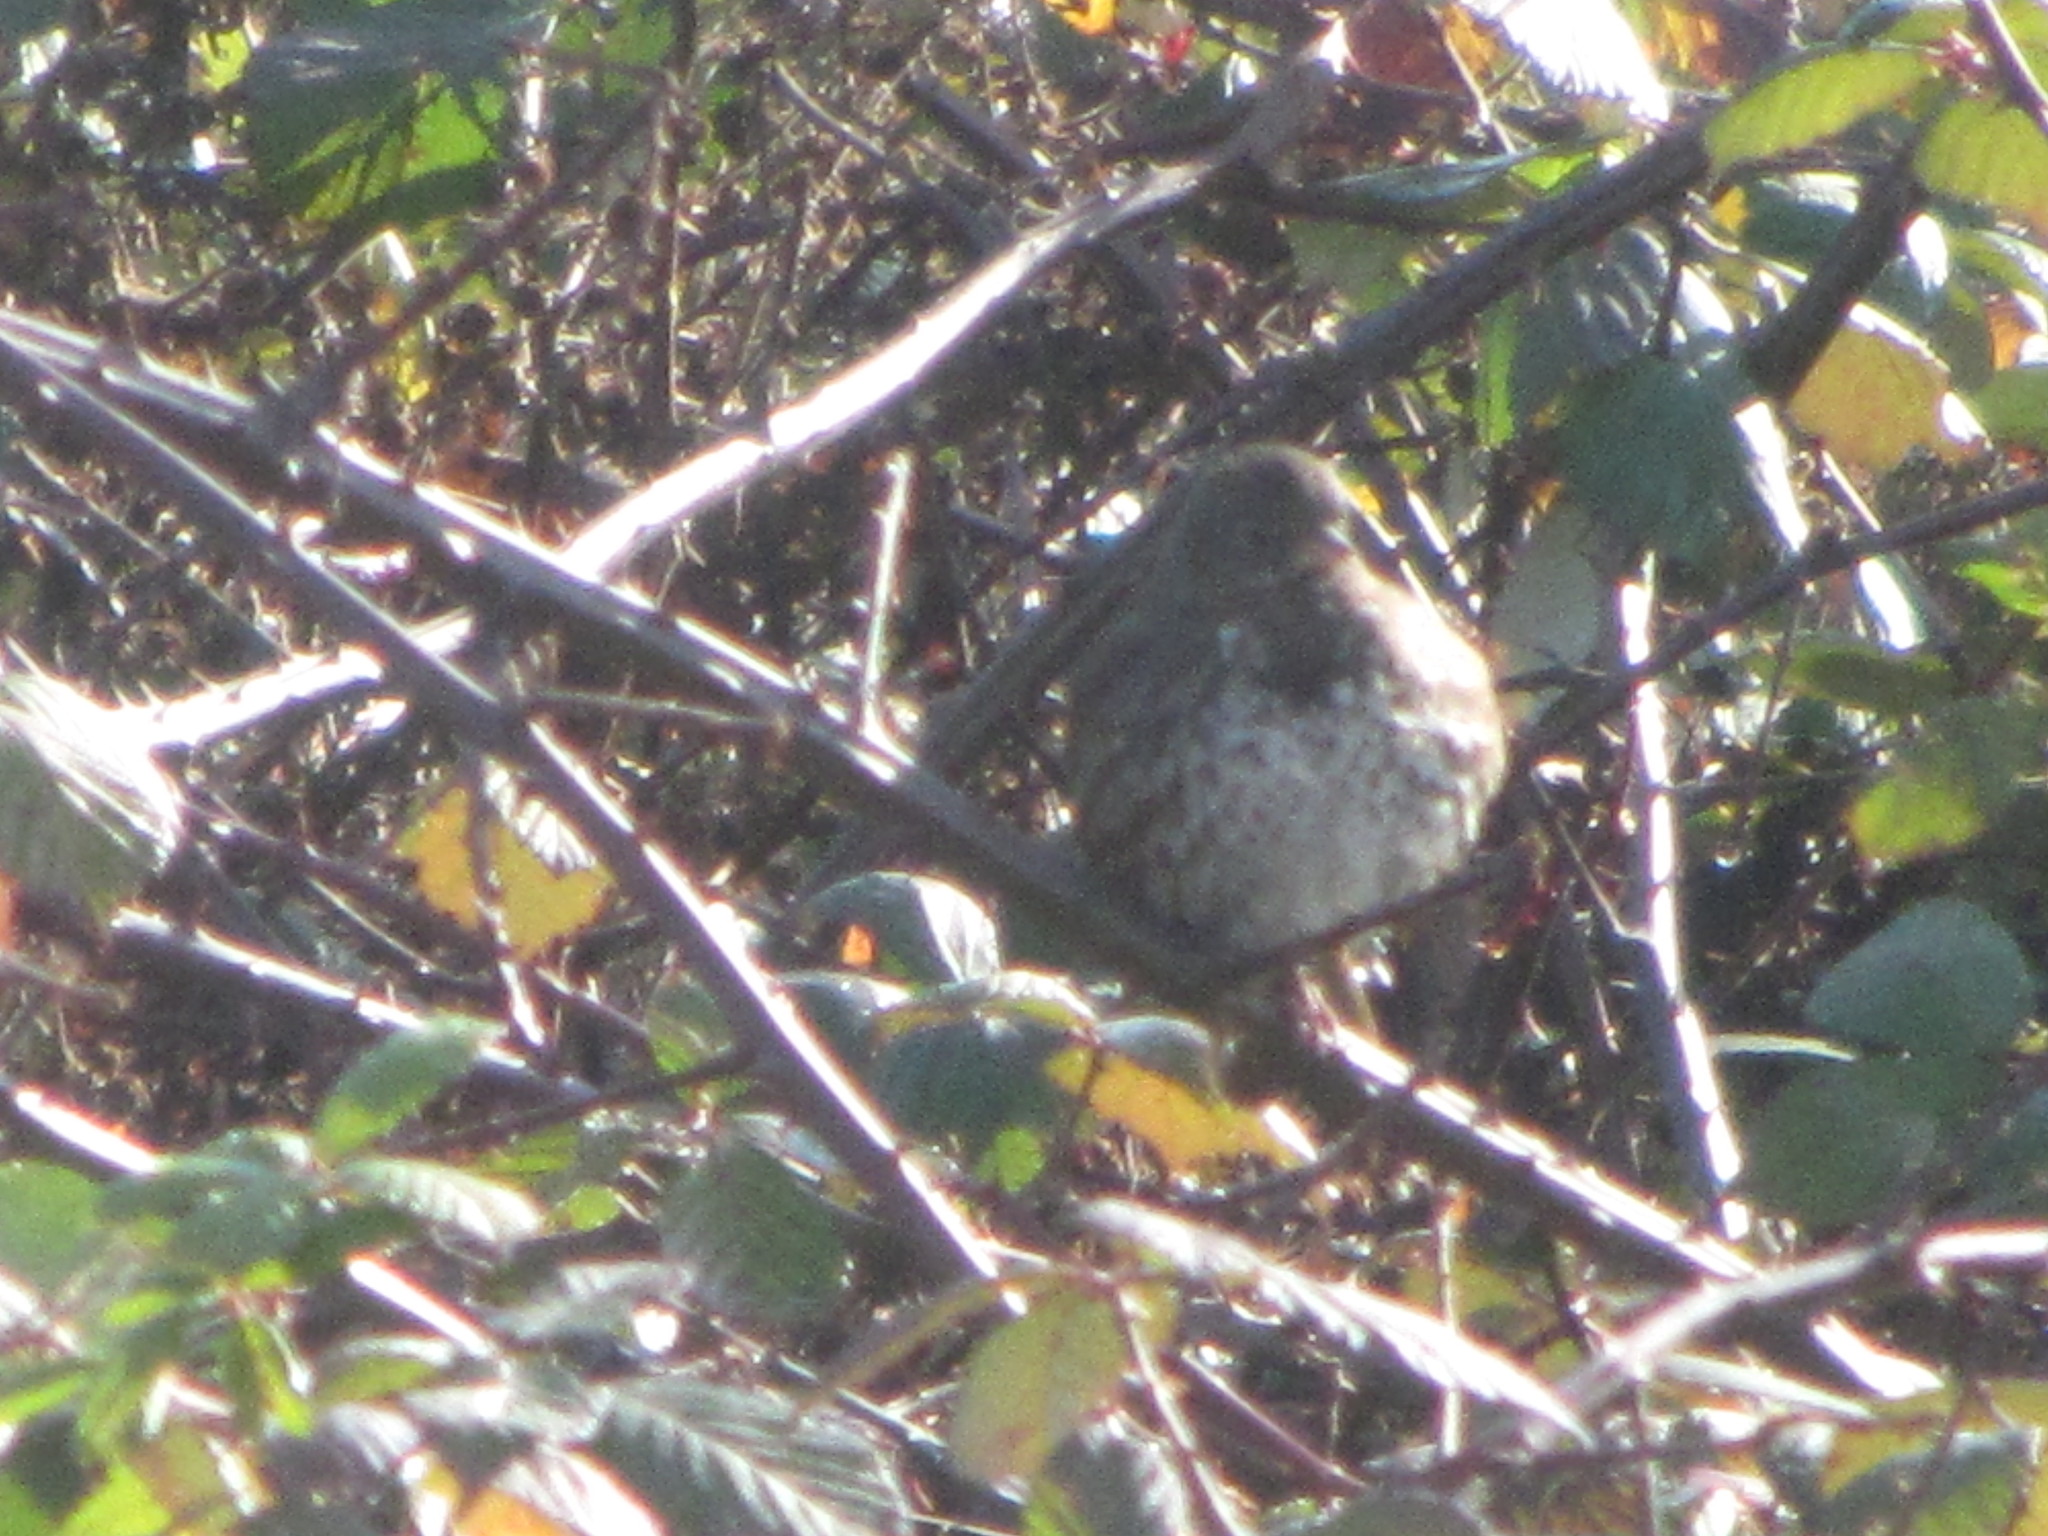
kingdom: Animalia
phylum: Chordata
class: Aves
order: Passeriformes
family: Passerellidae
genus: Passerella
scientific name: Passerella iliaca
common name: Fox sparrow
